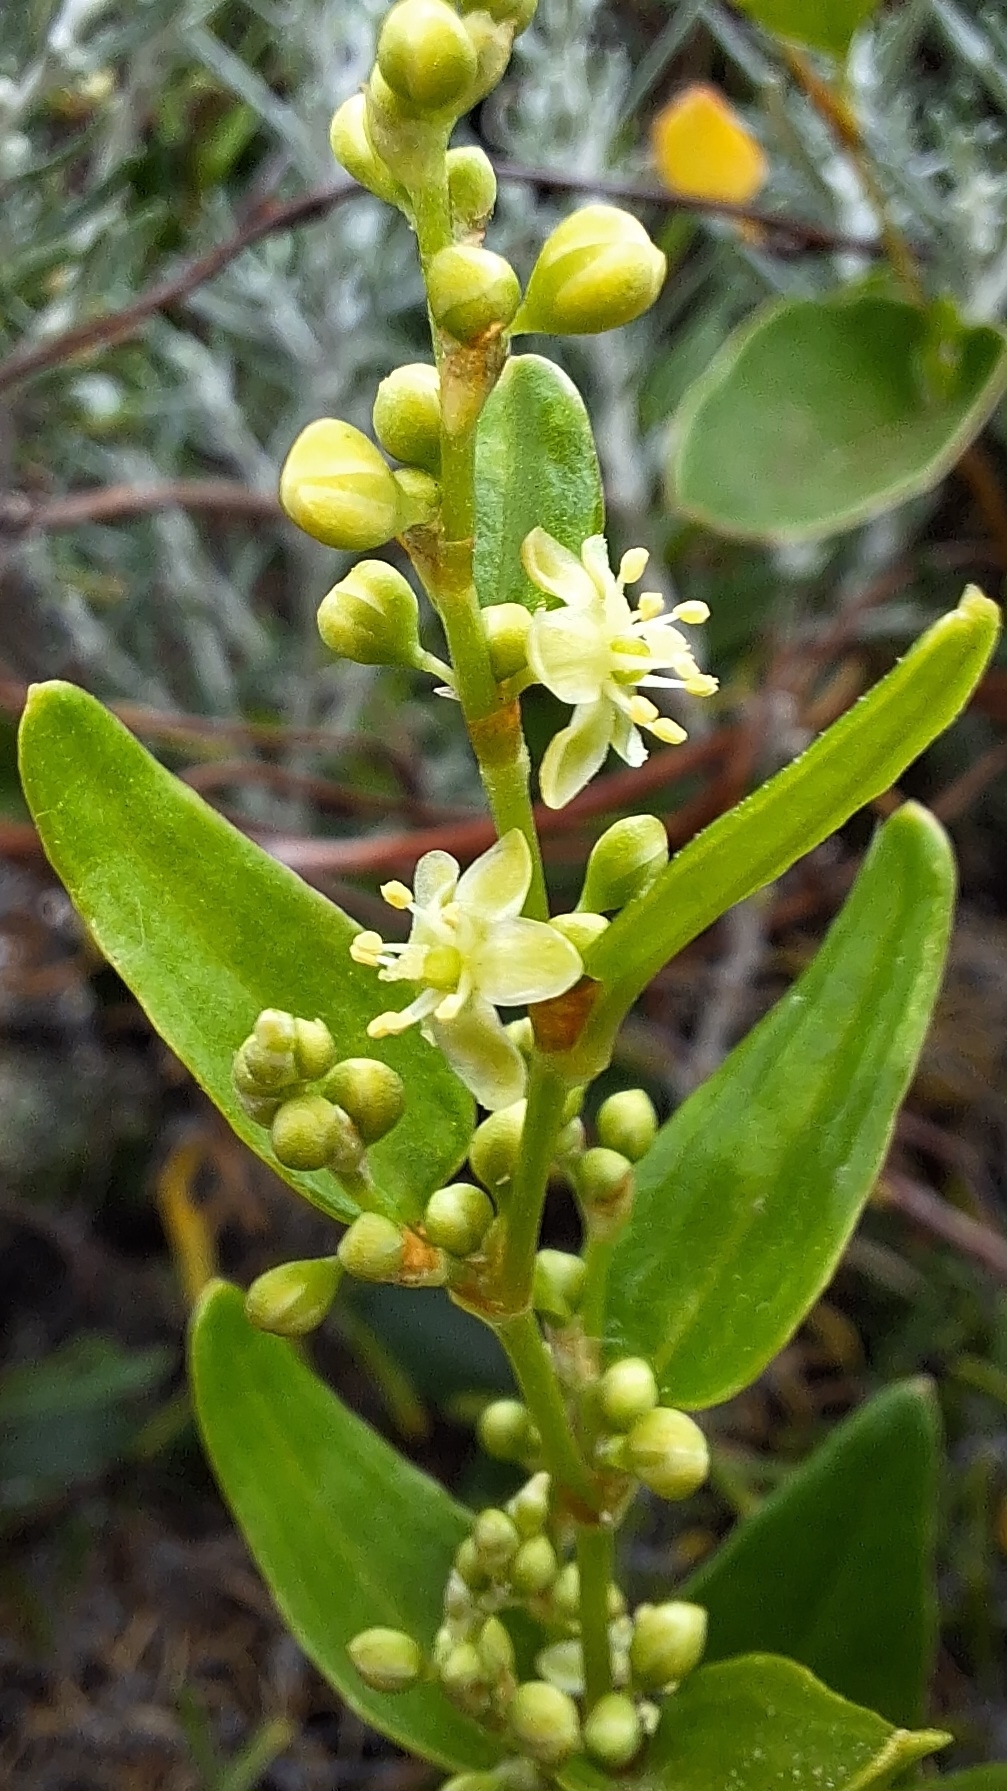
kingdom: Plantae
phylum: Tracheophyta
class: Magnoliopsida
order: Caryophyllales
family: Polygonaceae
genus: Muehlenbeckia
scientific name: Muehlenbeckia gunnii
